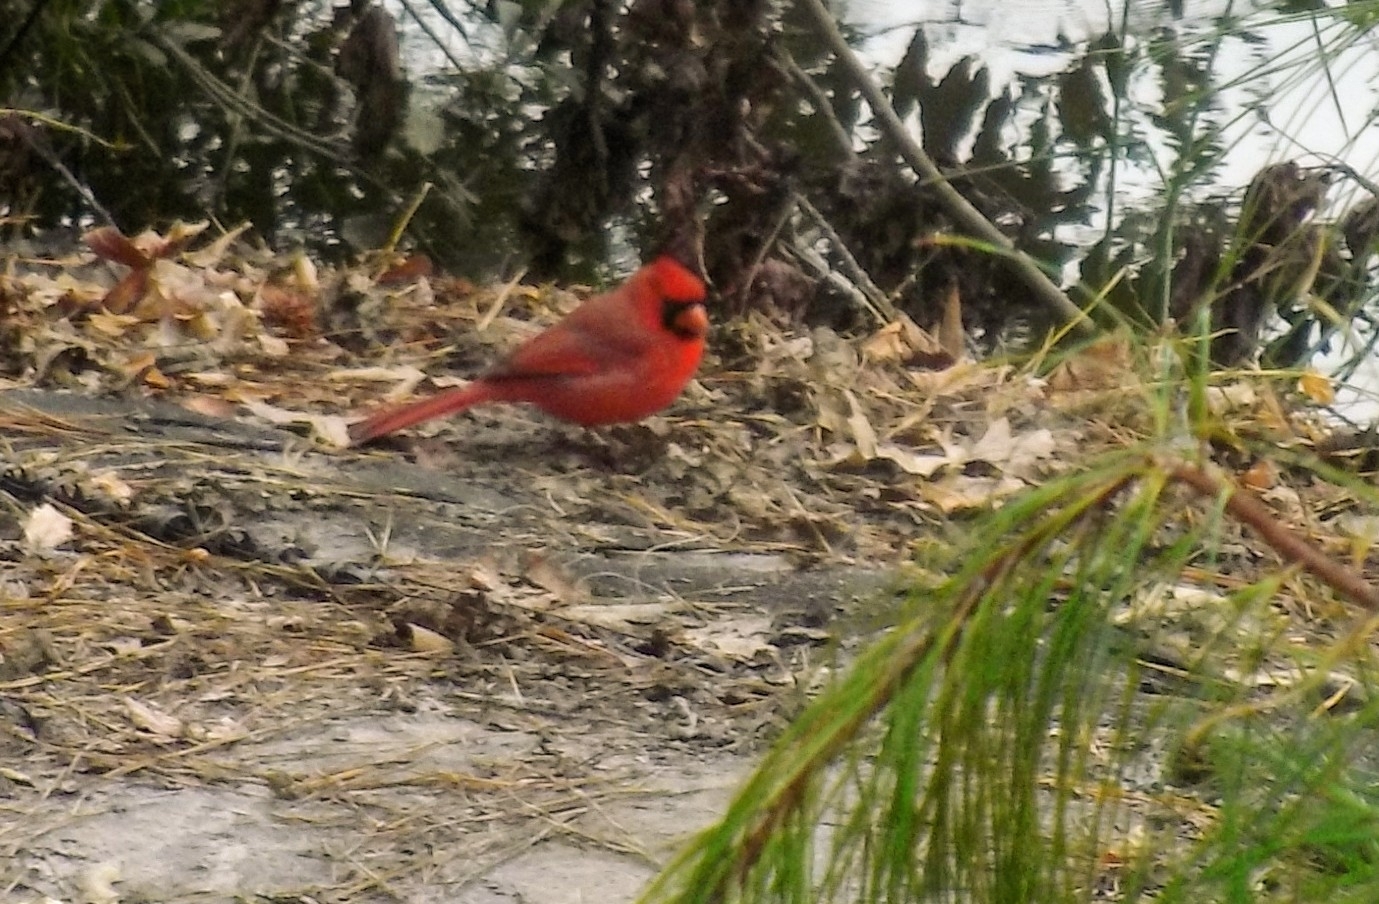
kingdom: Animalia
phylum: Chordata
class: Aves
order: Passeriformes
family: Cardinalidae
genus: Cardinalis
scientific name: Cardinalis cardinalis
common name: Northern cardinal
